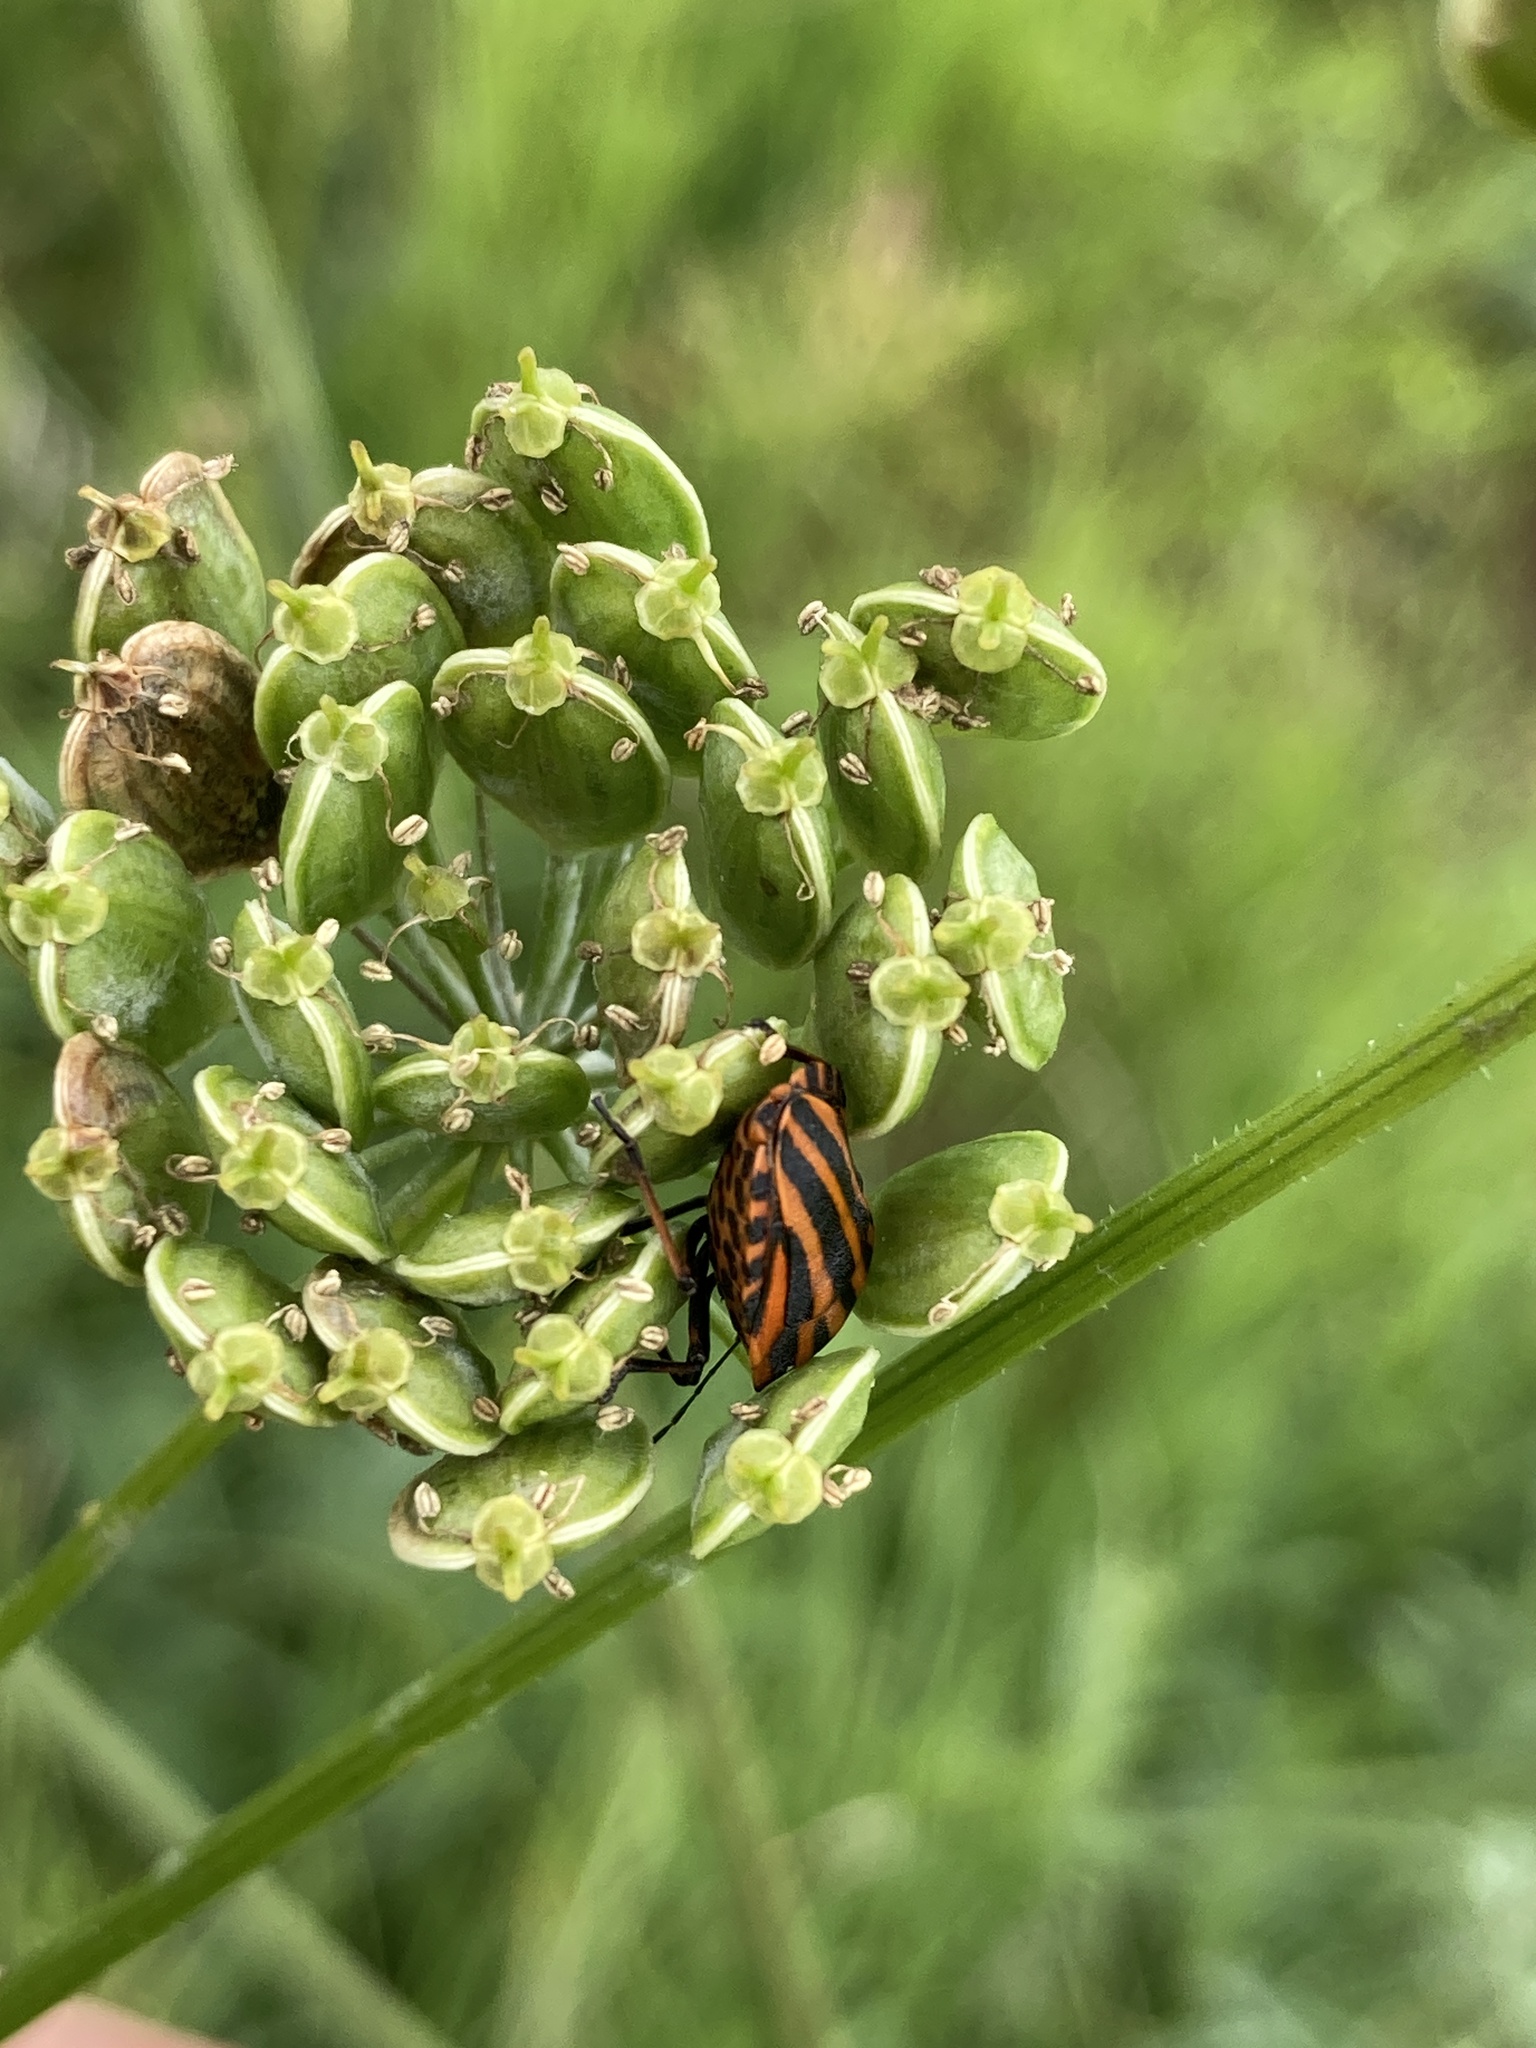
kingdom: Animalia
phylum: Arthropoda
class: Insecta
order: Hemiptera
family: Pentatomidae
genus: Graphosoma
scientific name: Graphosoma italicum
